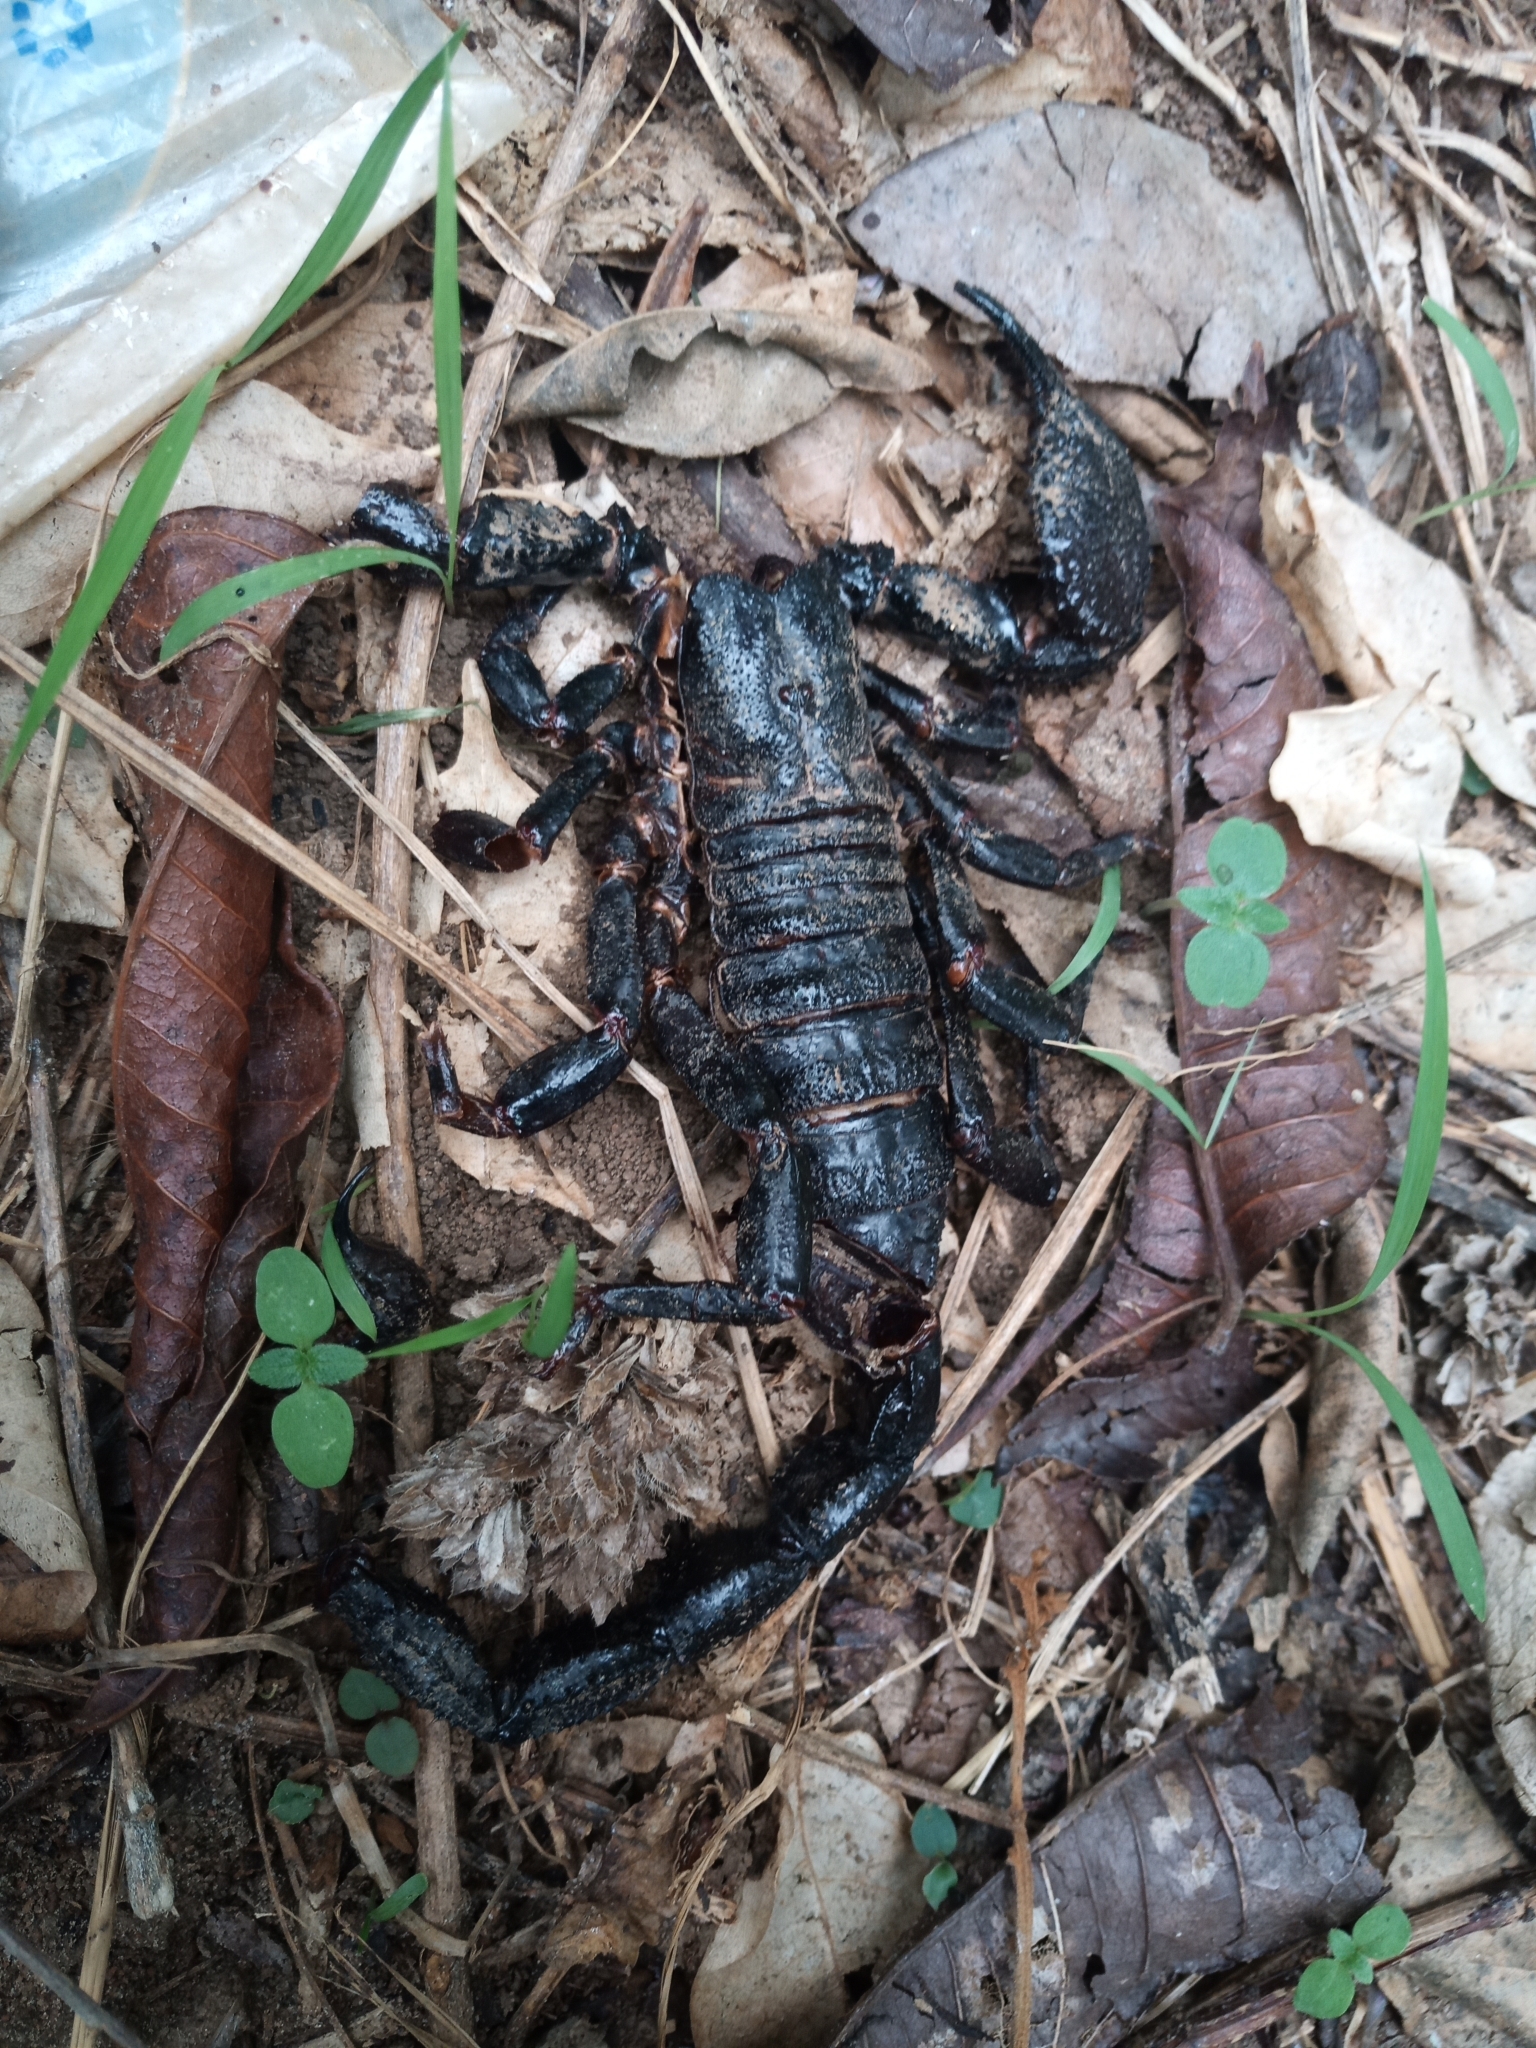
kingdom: Animalia
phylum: Arthropoda
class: Arachnida
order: Scorpiones
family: Scorpionidae
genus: Pandinopsis
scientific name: Pandinopsis dictator
